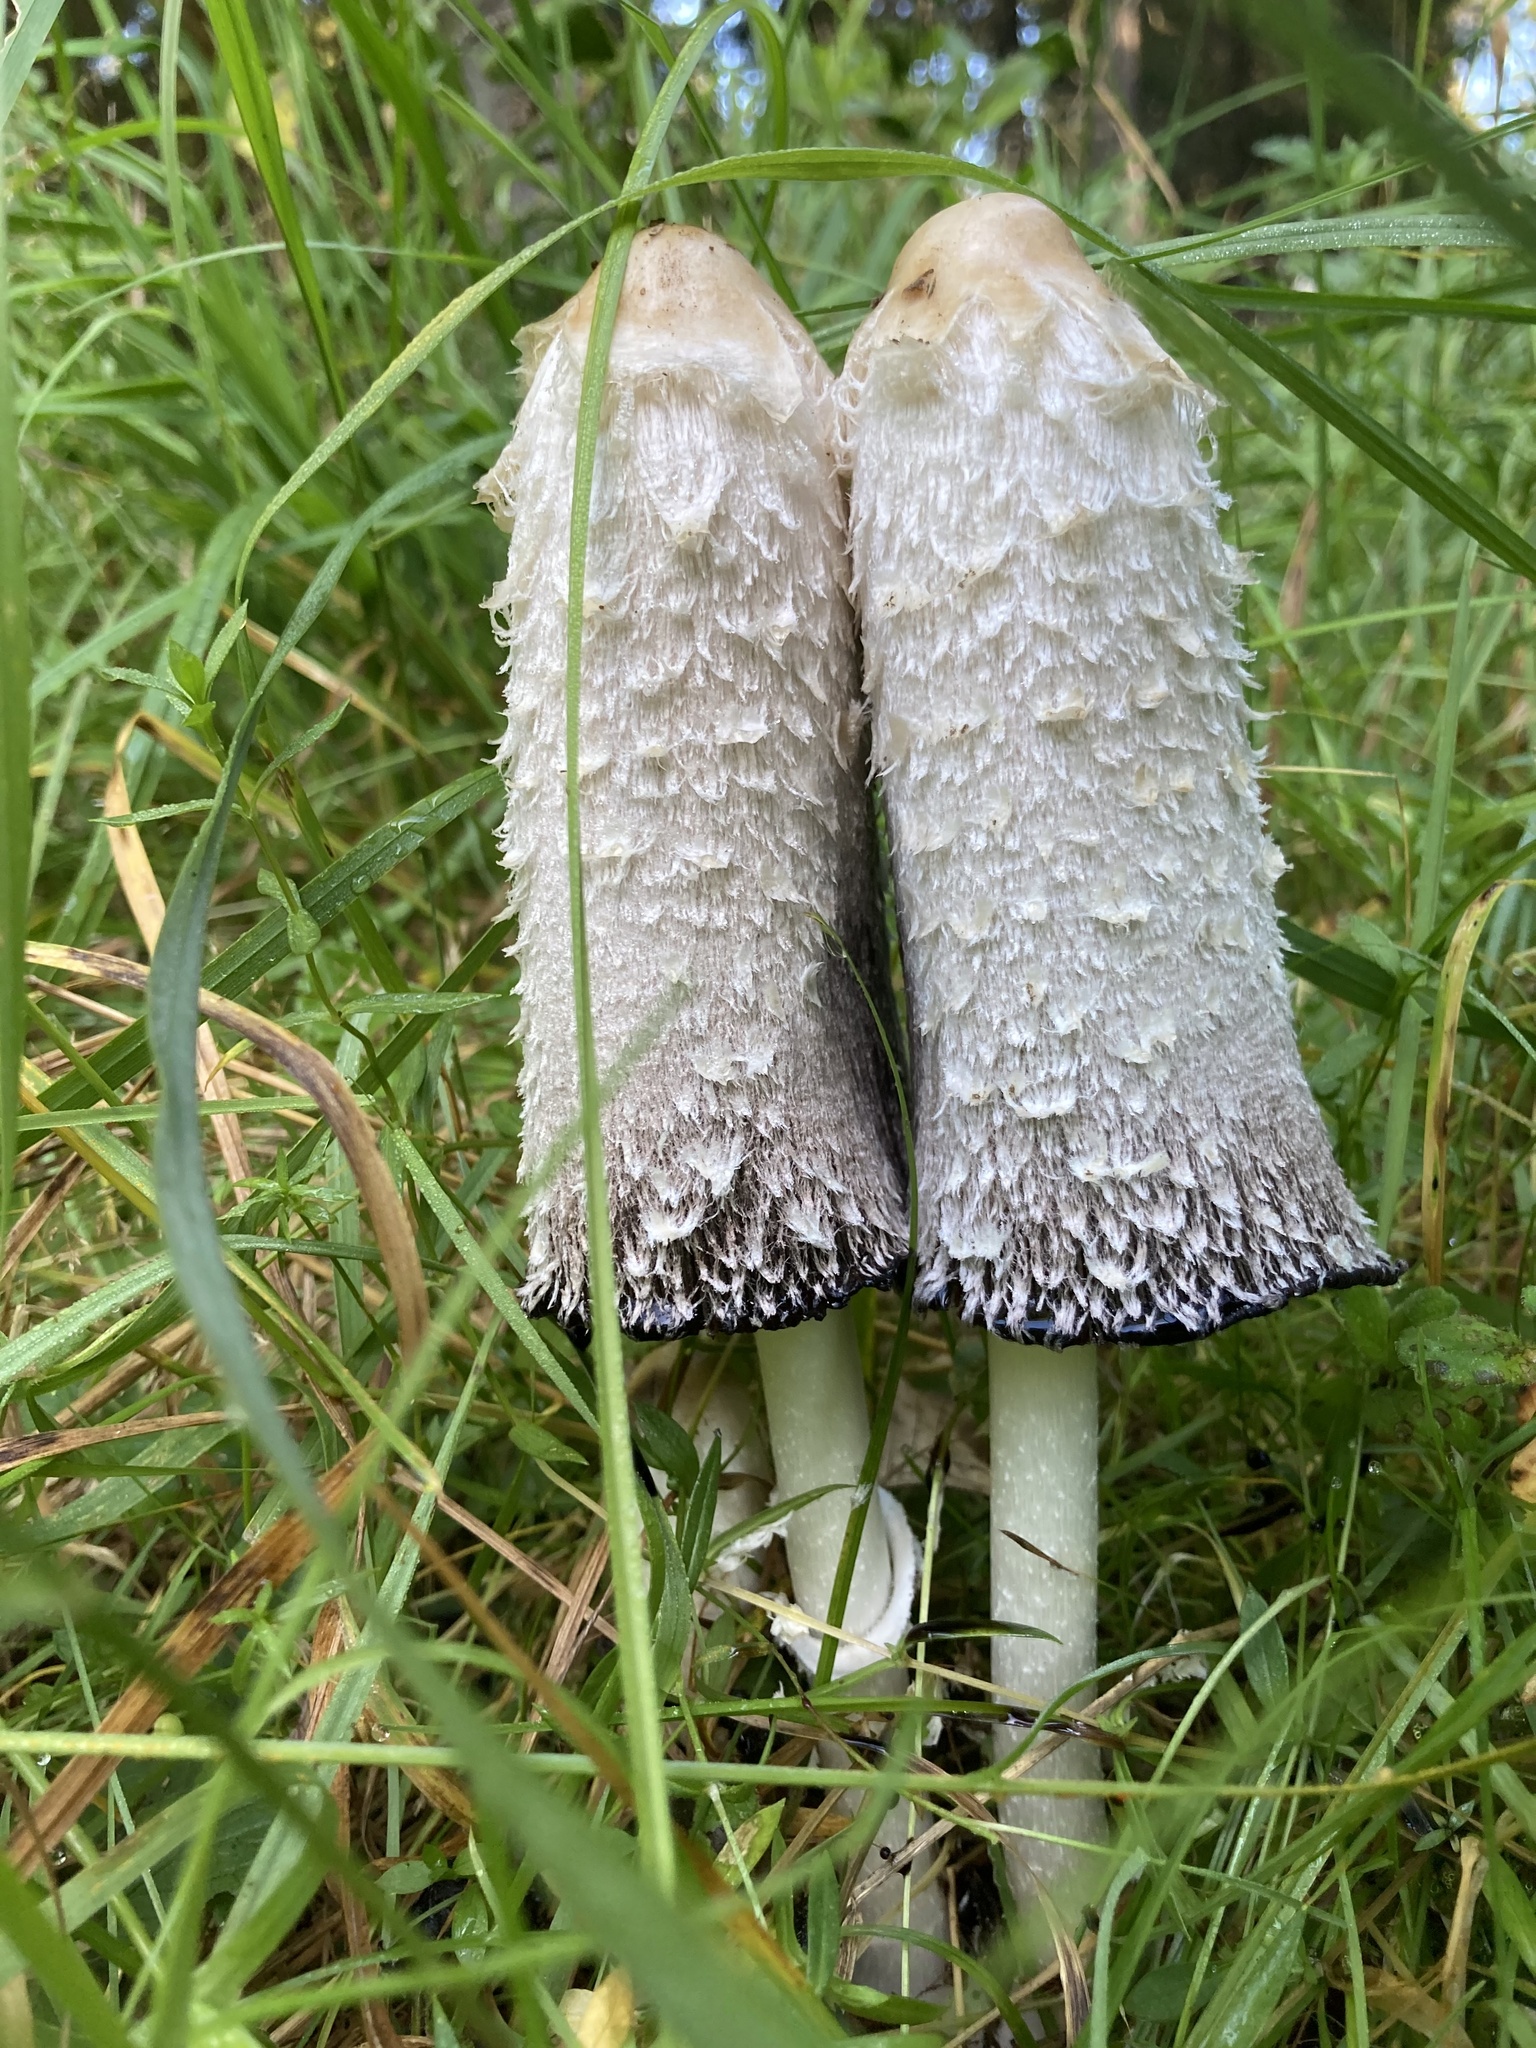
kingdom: Fungi
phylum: Basidiomycota
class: Agaricomycetes
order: Agaricales
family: Agaricaceae
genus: Coprinus
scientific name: Coprinus comatus
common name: Lawyer's wig
